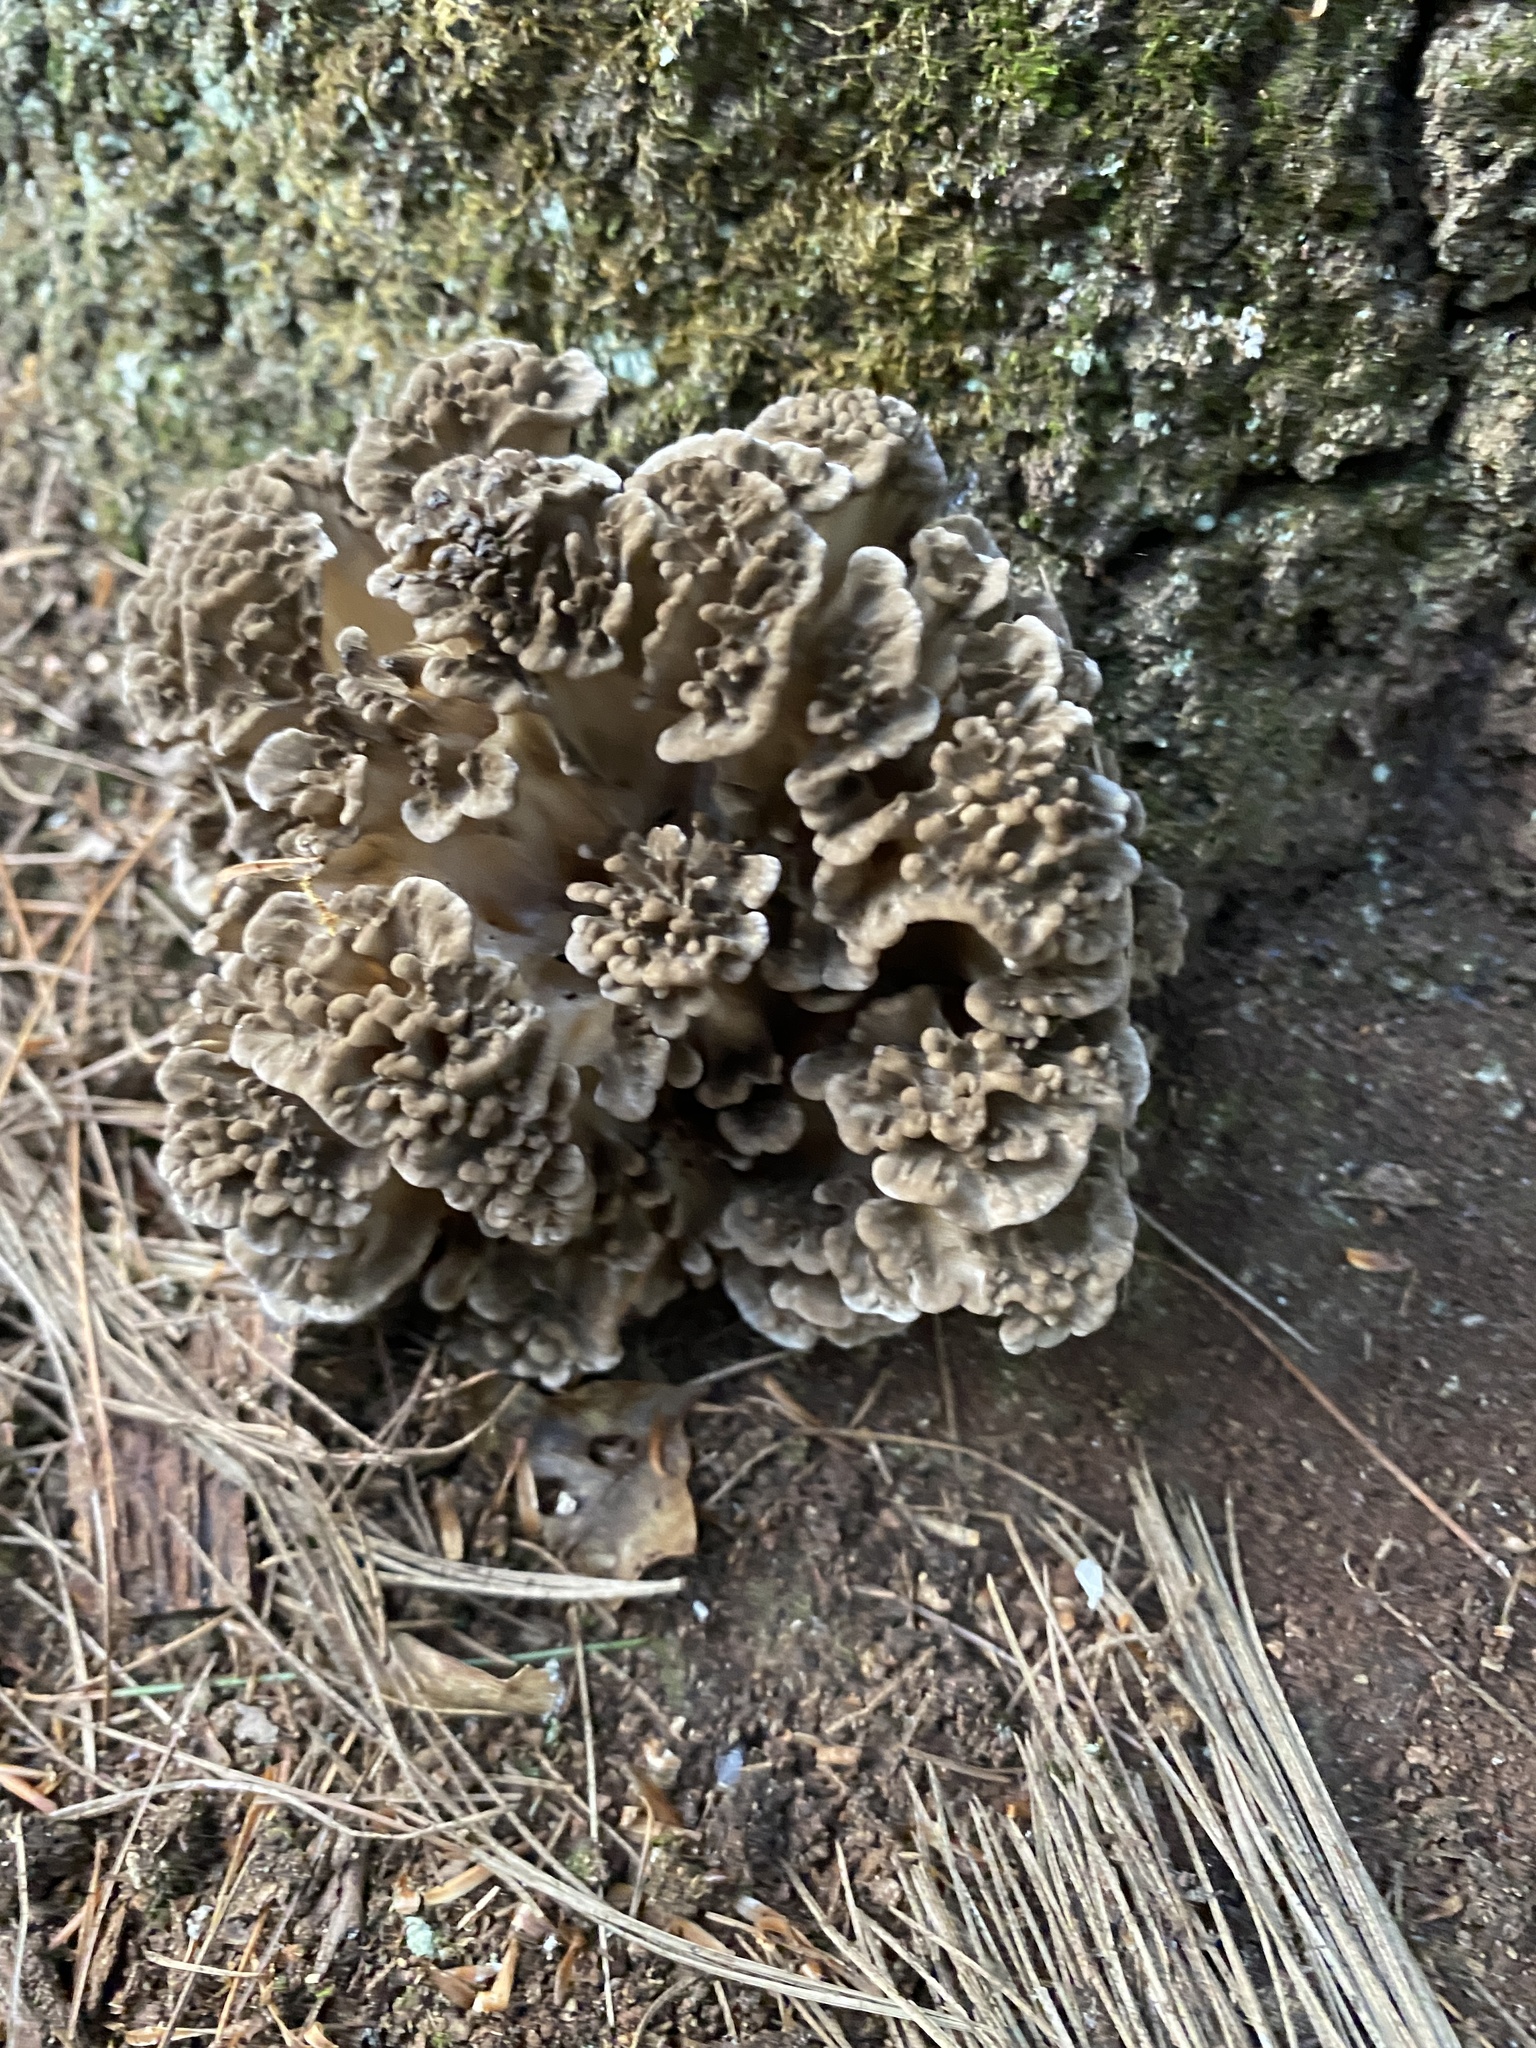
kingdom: Fungi
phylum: Basidiomycota
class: Agaricomycetes
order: Polyporales
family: Grifolaceae
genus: Grifola
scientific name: Grifola frondosa
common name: Hen of the woods
